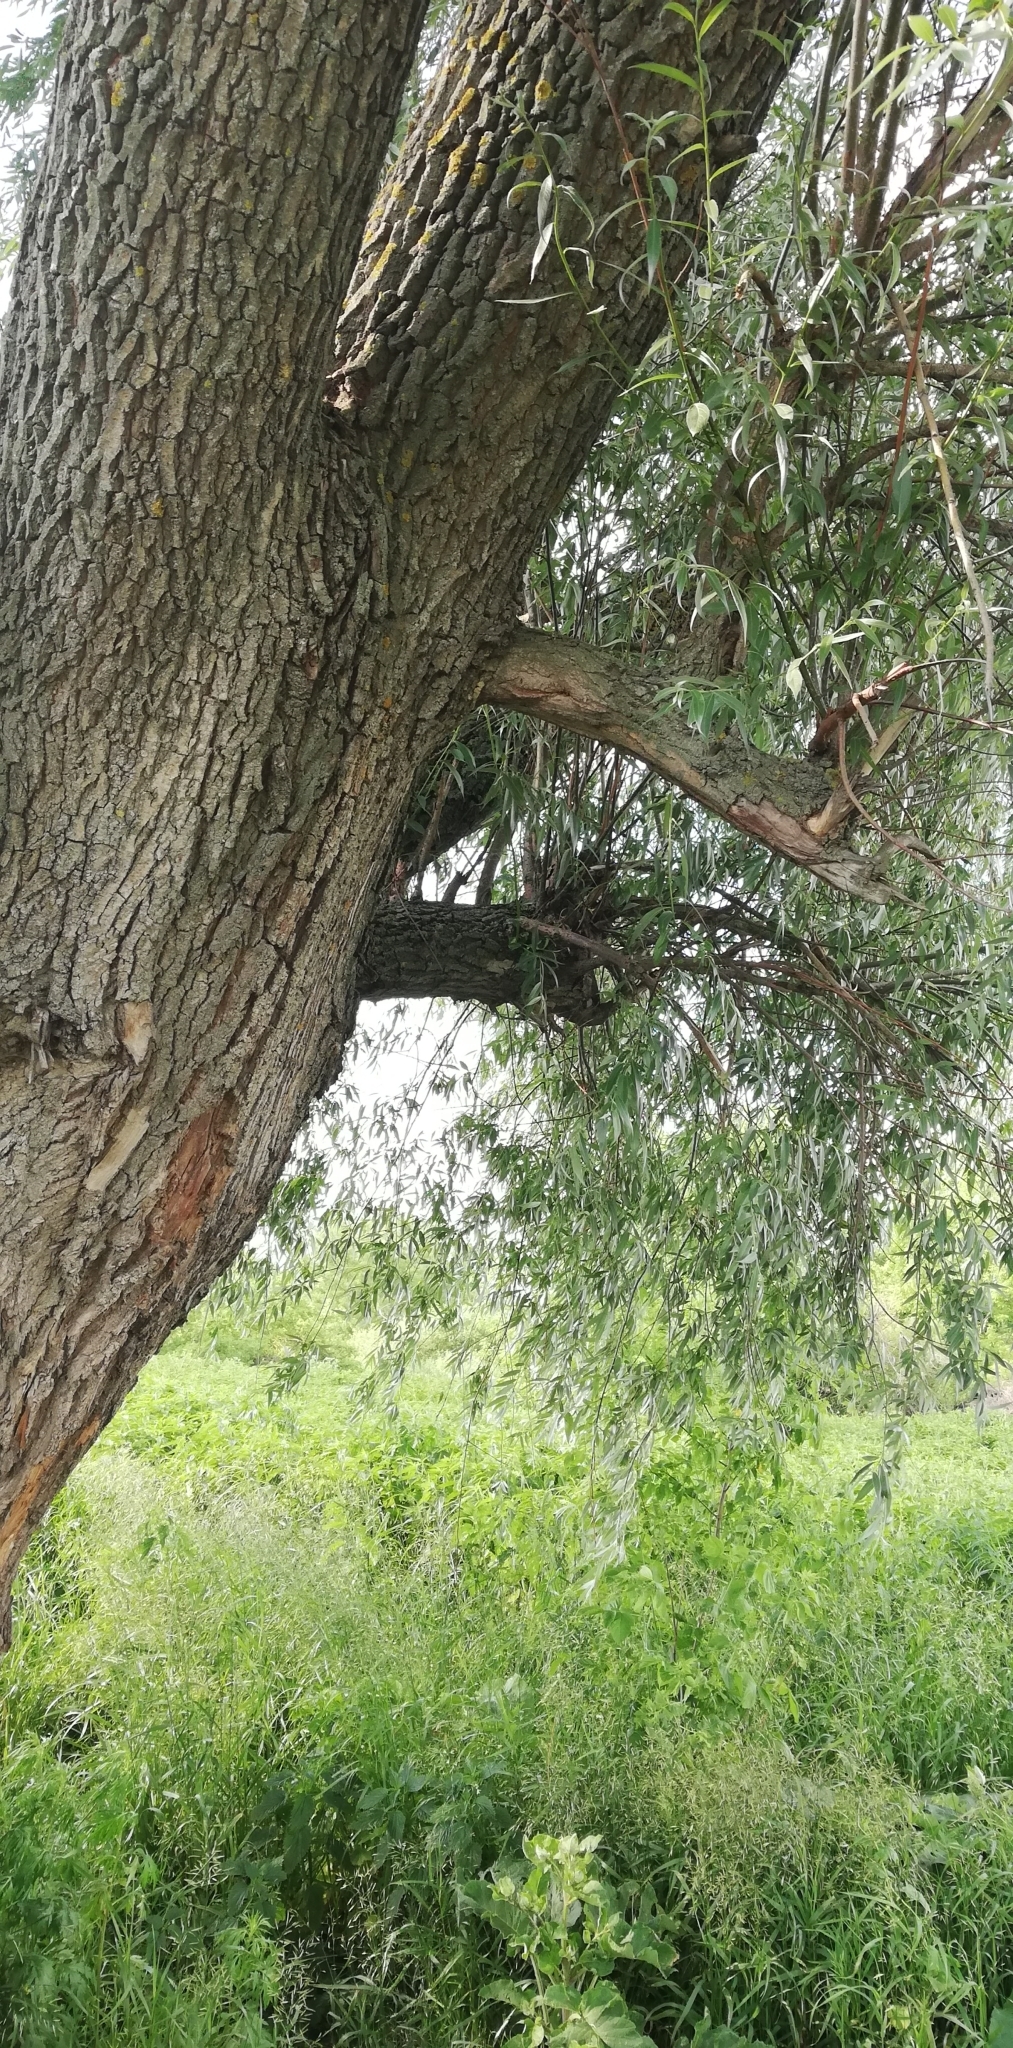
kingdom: Plantae
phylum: Tracheophyta
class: Magnoliopsida
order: Malpighiales
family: Salicaceae
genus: Salix
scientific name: Salix alba
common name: White willow
